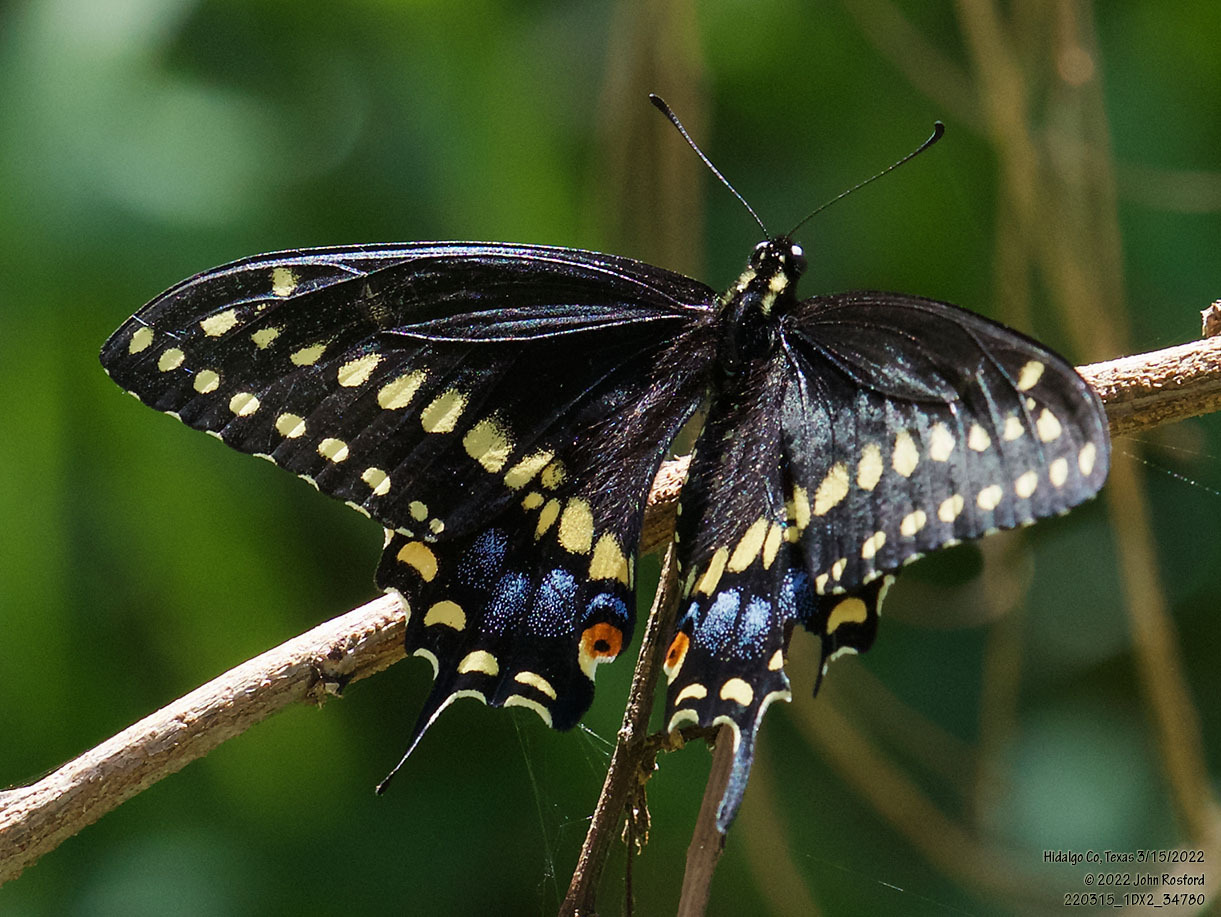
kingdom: Animalia
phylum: Arthropoda
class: Insecta
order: Lepidoptera
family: Papilionidae
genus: Papilio
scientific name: Papilio polyxenes
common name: Black swallowtail
